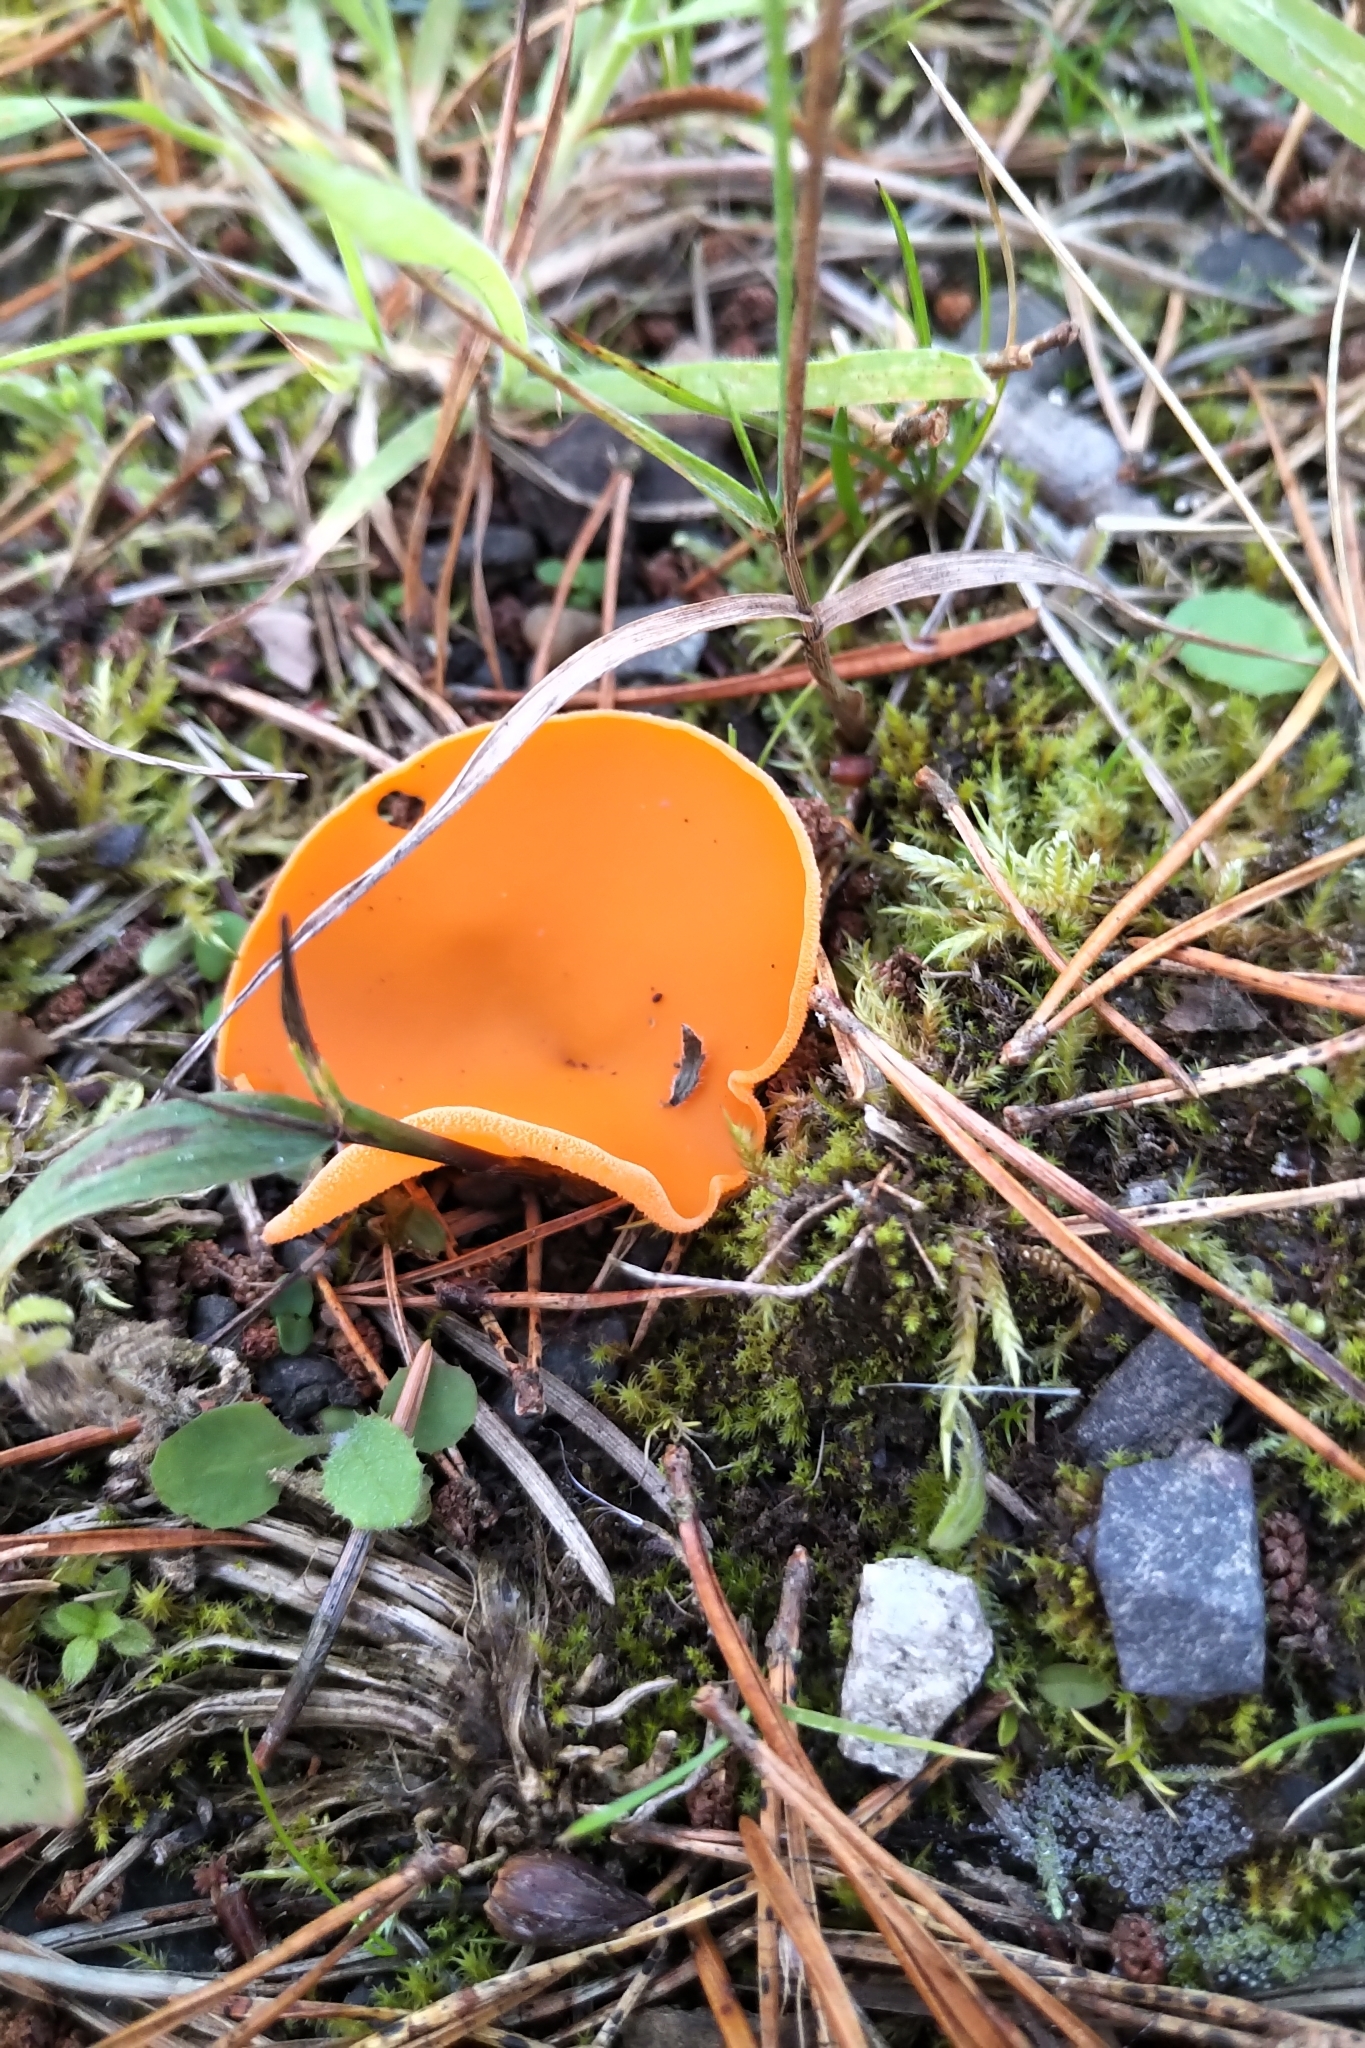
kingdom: Fungi
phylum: Ascomycota
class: Pezizomycetes
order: Pezizales
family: Pyronemataceae
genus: Aleuria
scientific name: Aleuria aurantia
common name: Orange peel fungus
